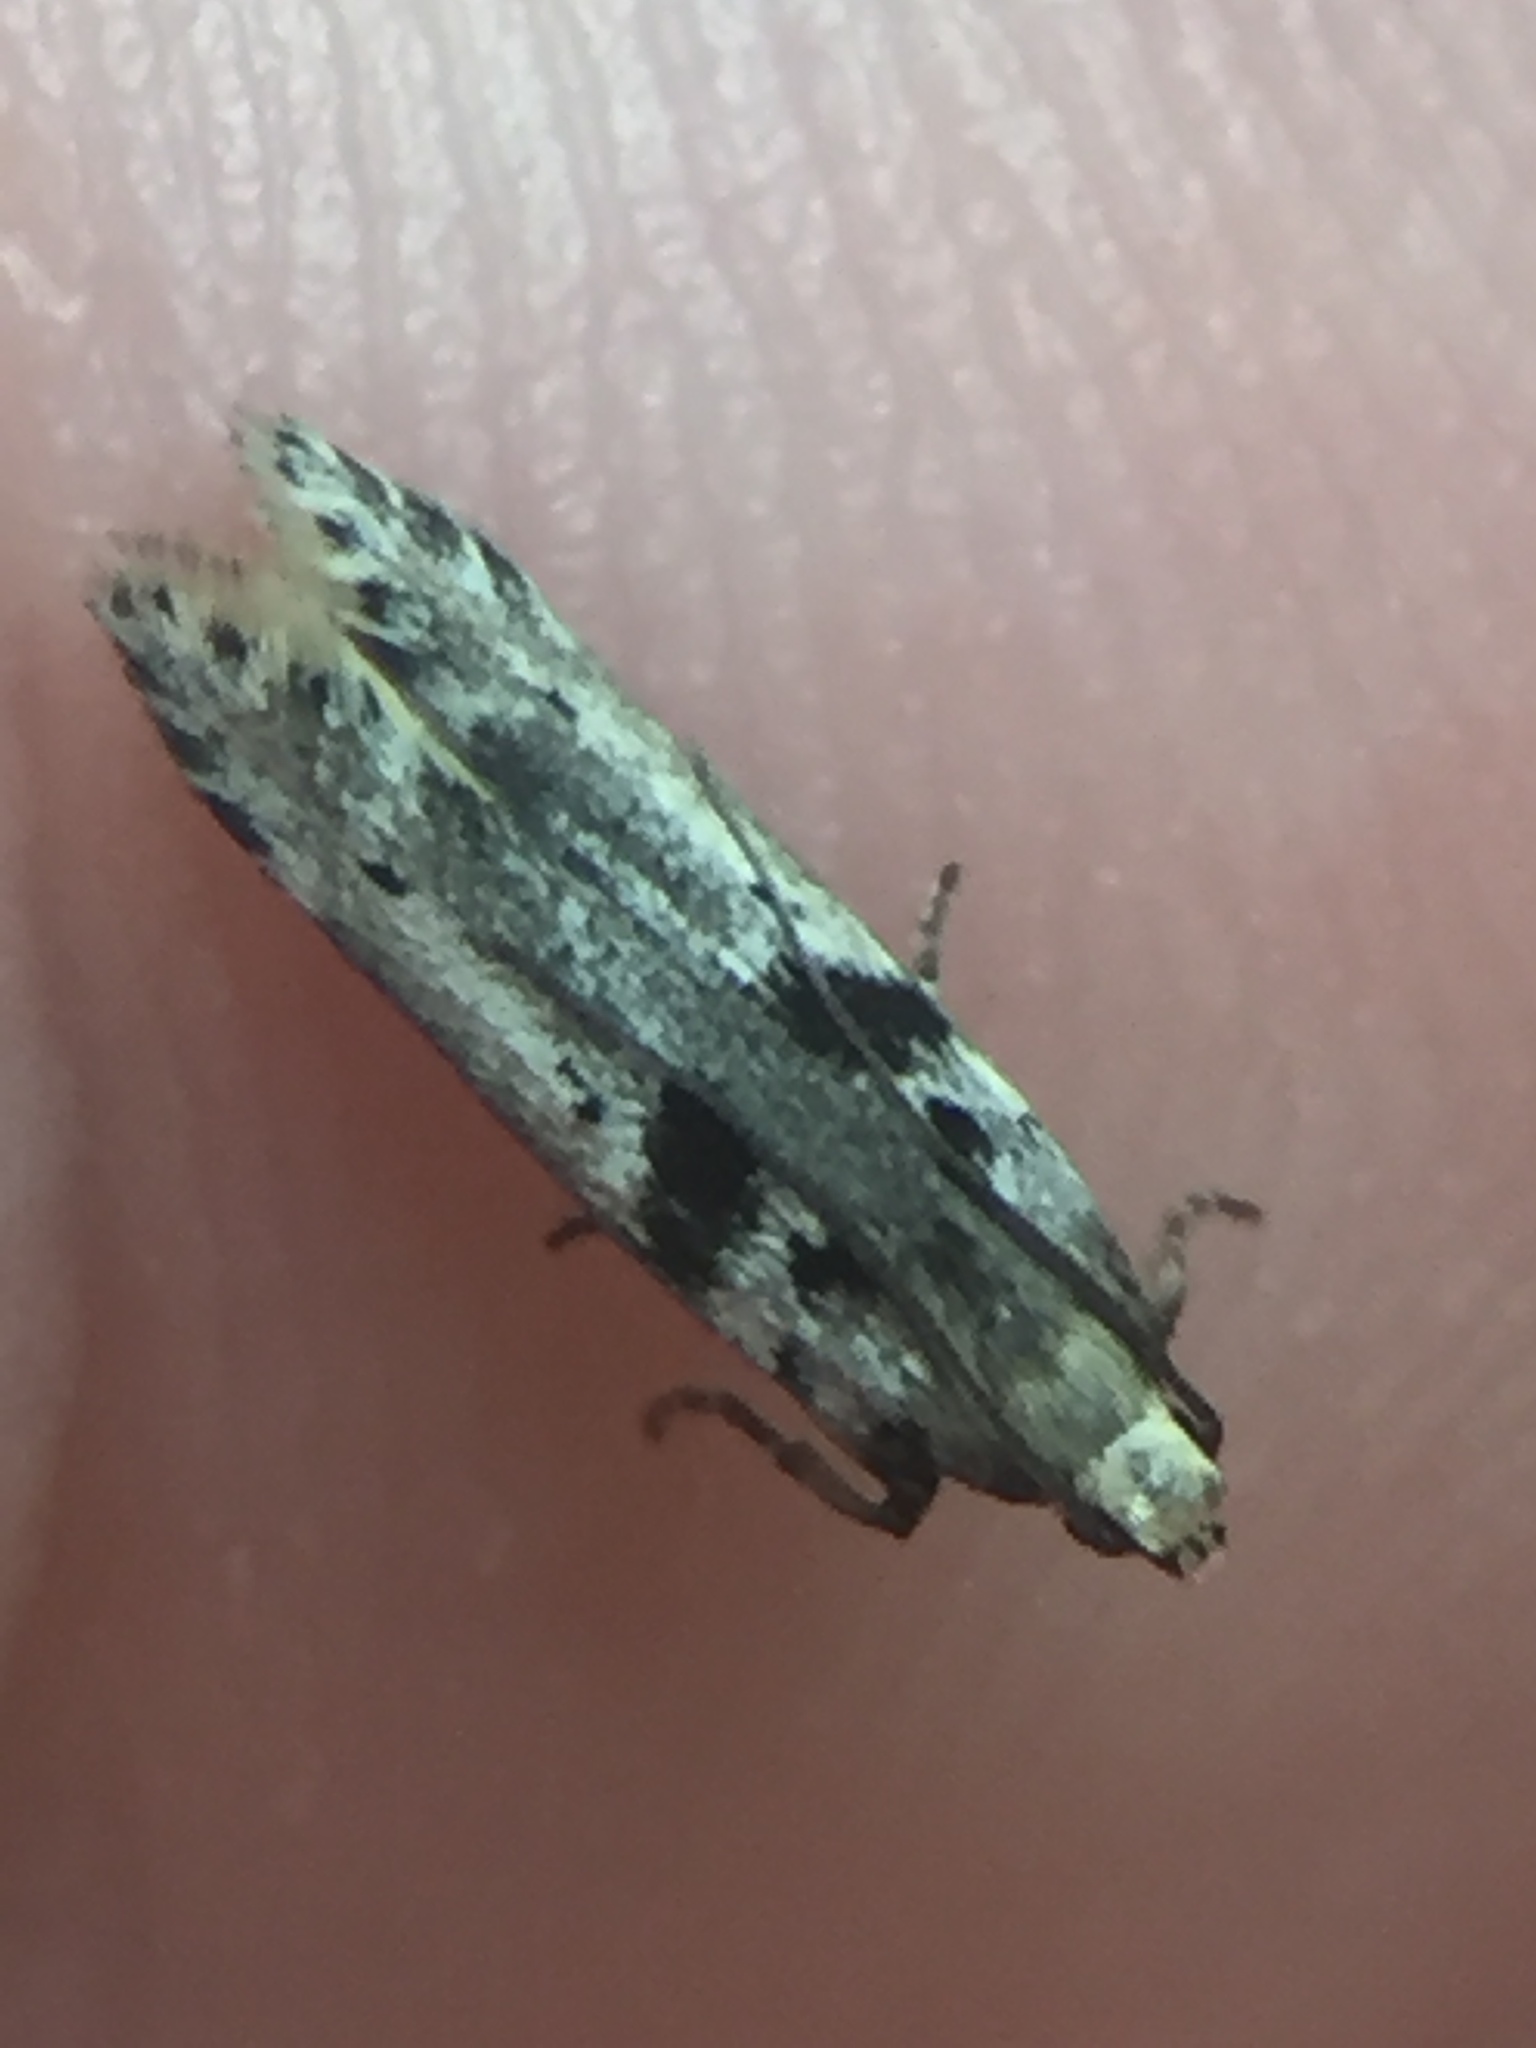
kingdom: Animalia
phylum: Arthropoda
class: Insecta
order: Lepidoptera
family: Gelechiidae
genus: Aristotelia
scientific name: Aristotelia paradesma
